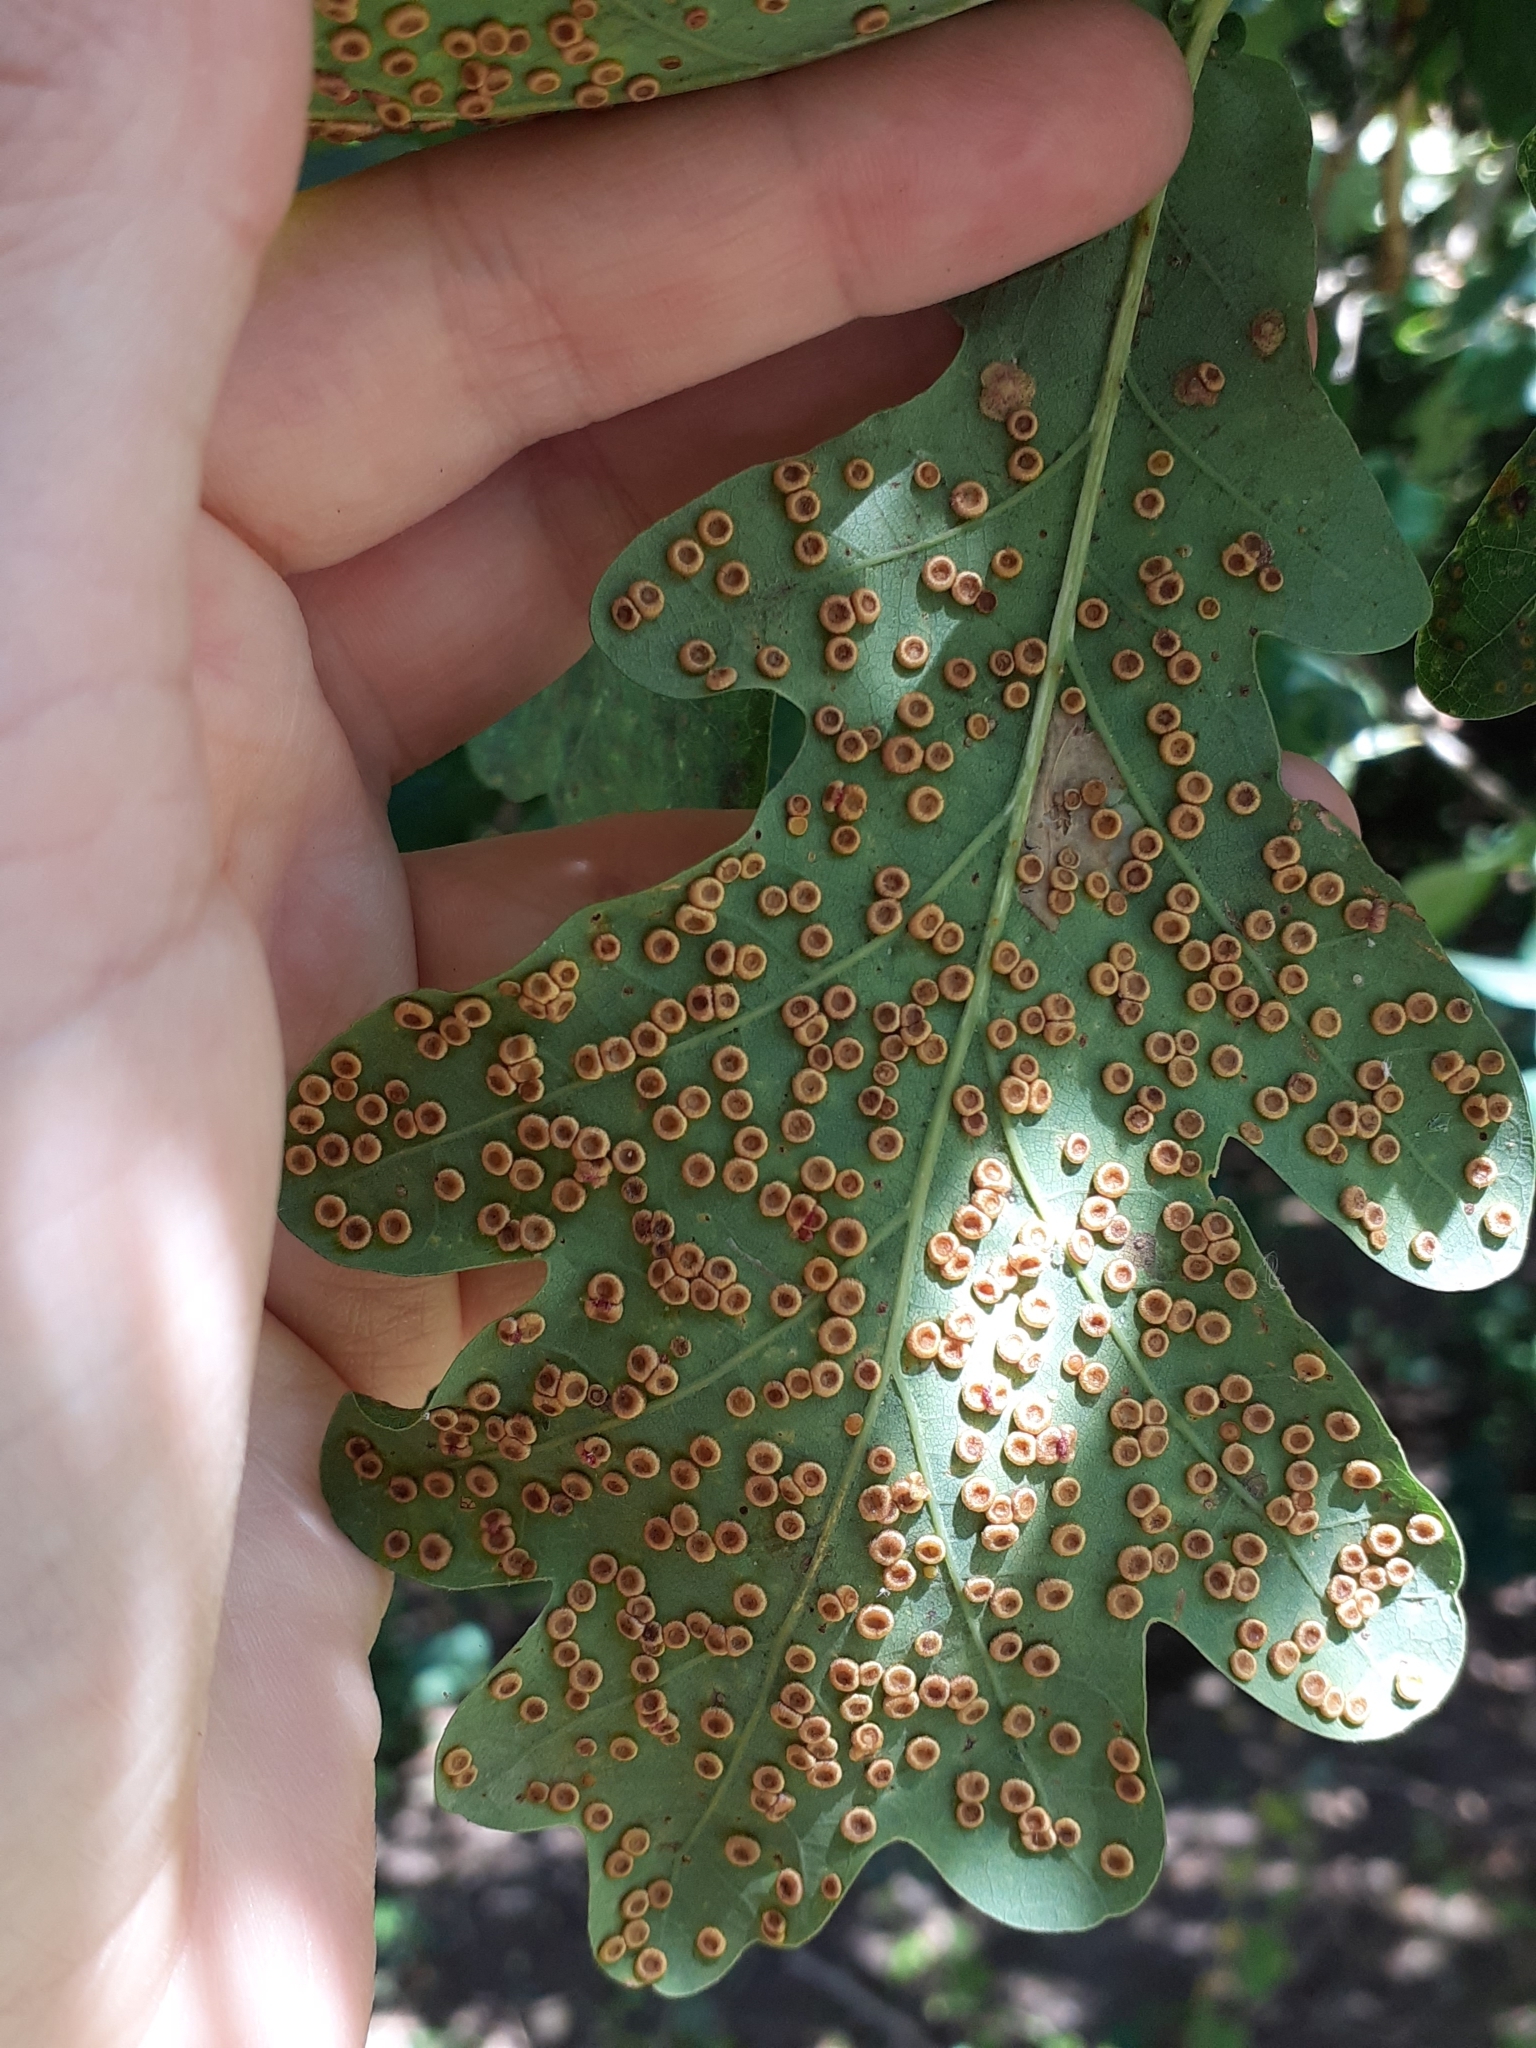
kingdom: Animalia
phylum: Arthropoda
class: Insecta
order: Hymenoptera
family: Cynipidae
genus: Neuroterus
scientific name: Neuroterus numismalis
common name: Silk-button spangle gall
